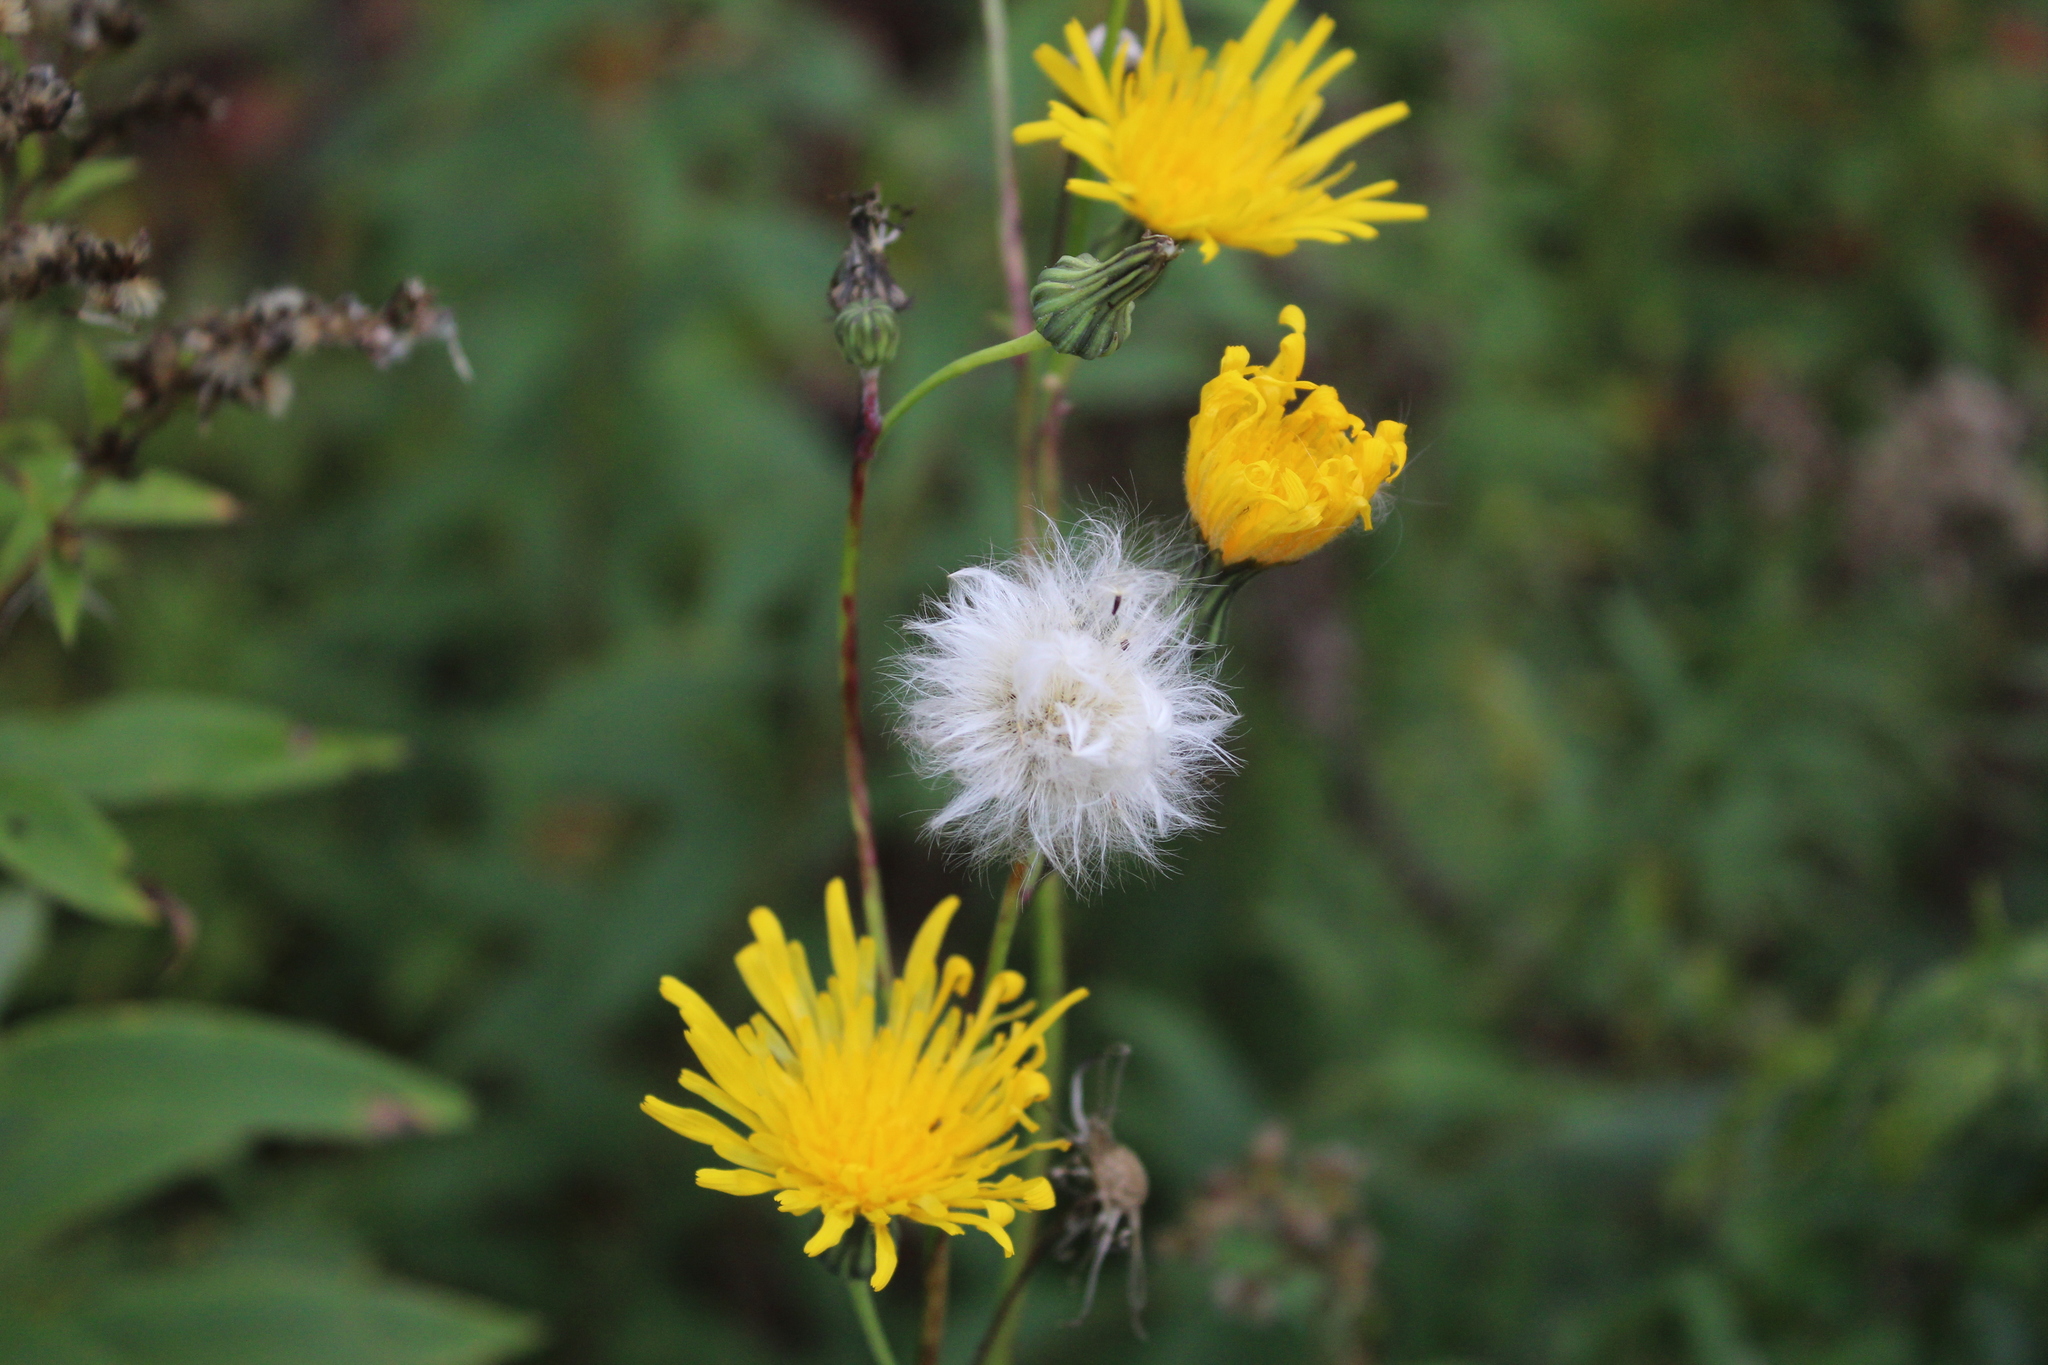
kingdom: Plantae
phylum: Tracheophyta
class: Magnoliopsida
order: Asterales
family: Asteraceae
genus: Sonchus
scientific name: Sonchus arvensis
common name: Perennial sow-thistle
